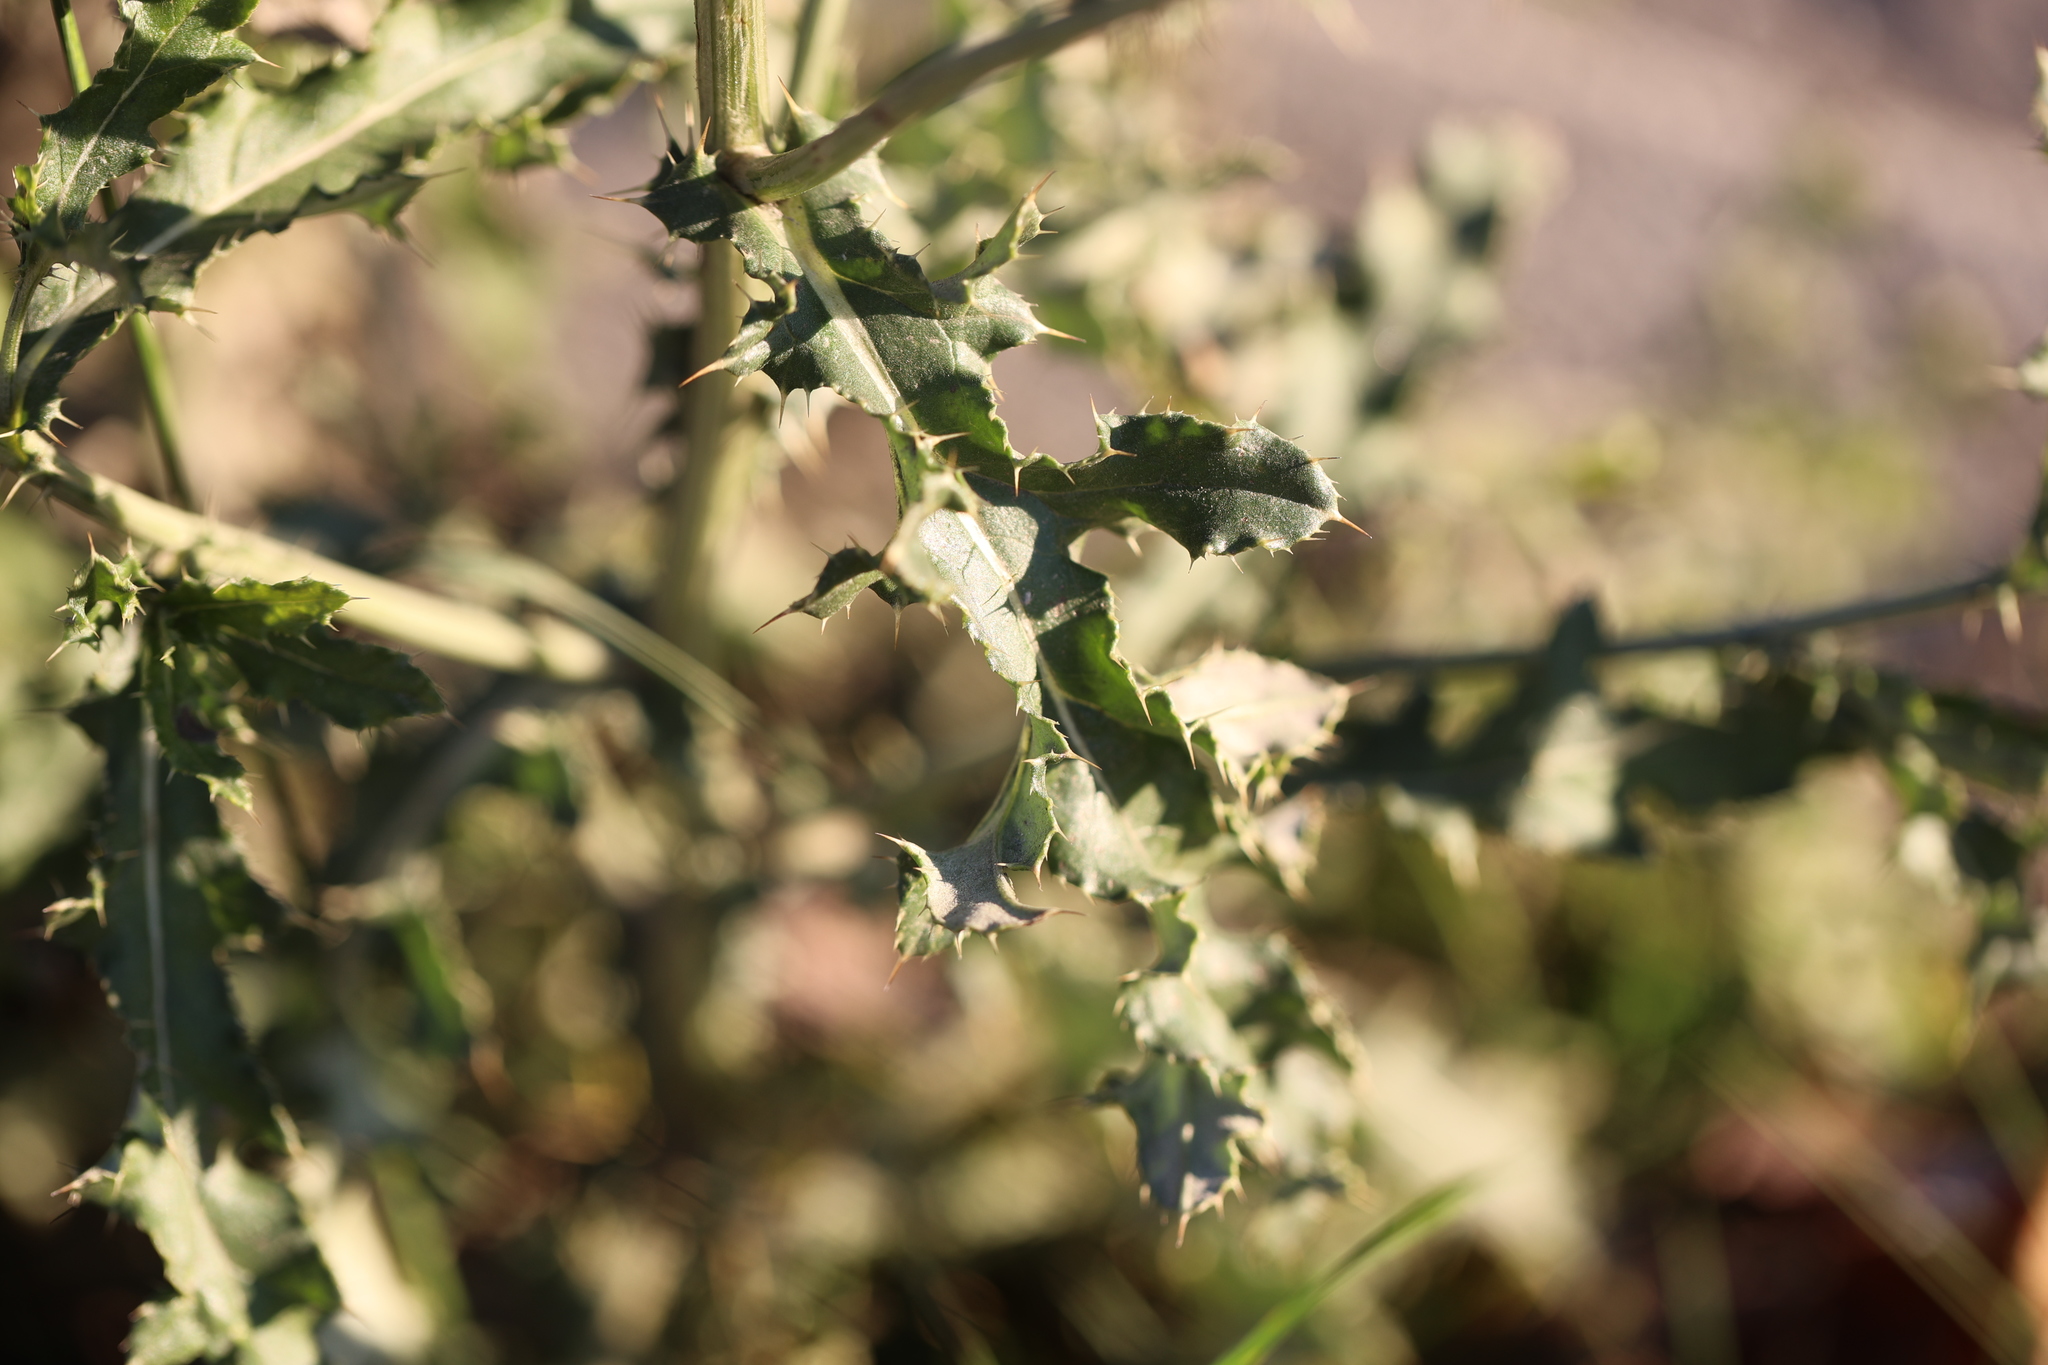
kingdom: Plantae
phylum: Tracheophyta
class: Magnoliopsida
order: Asterales
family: Asteraceae
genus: Cirsium
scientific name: Cirsium arvense
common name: Creeping thistle
